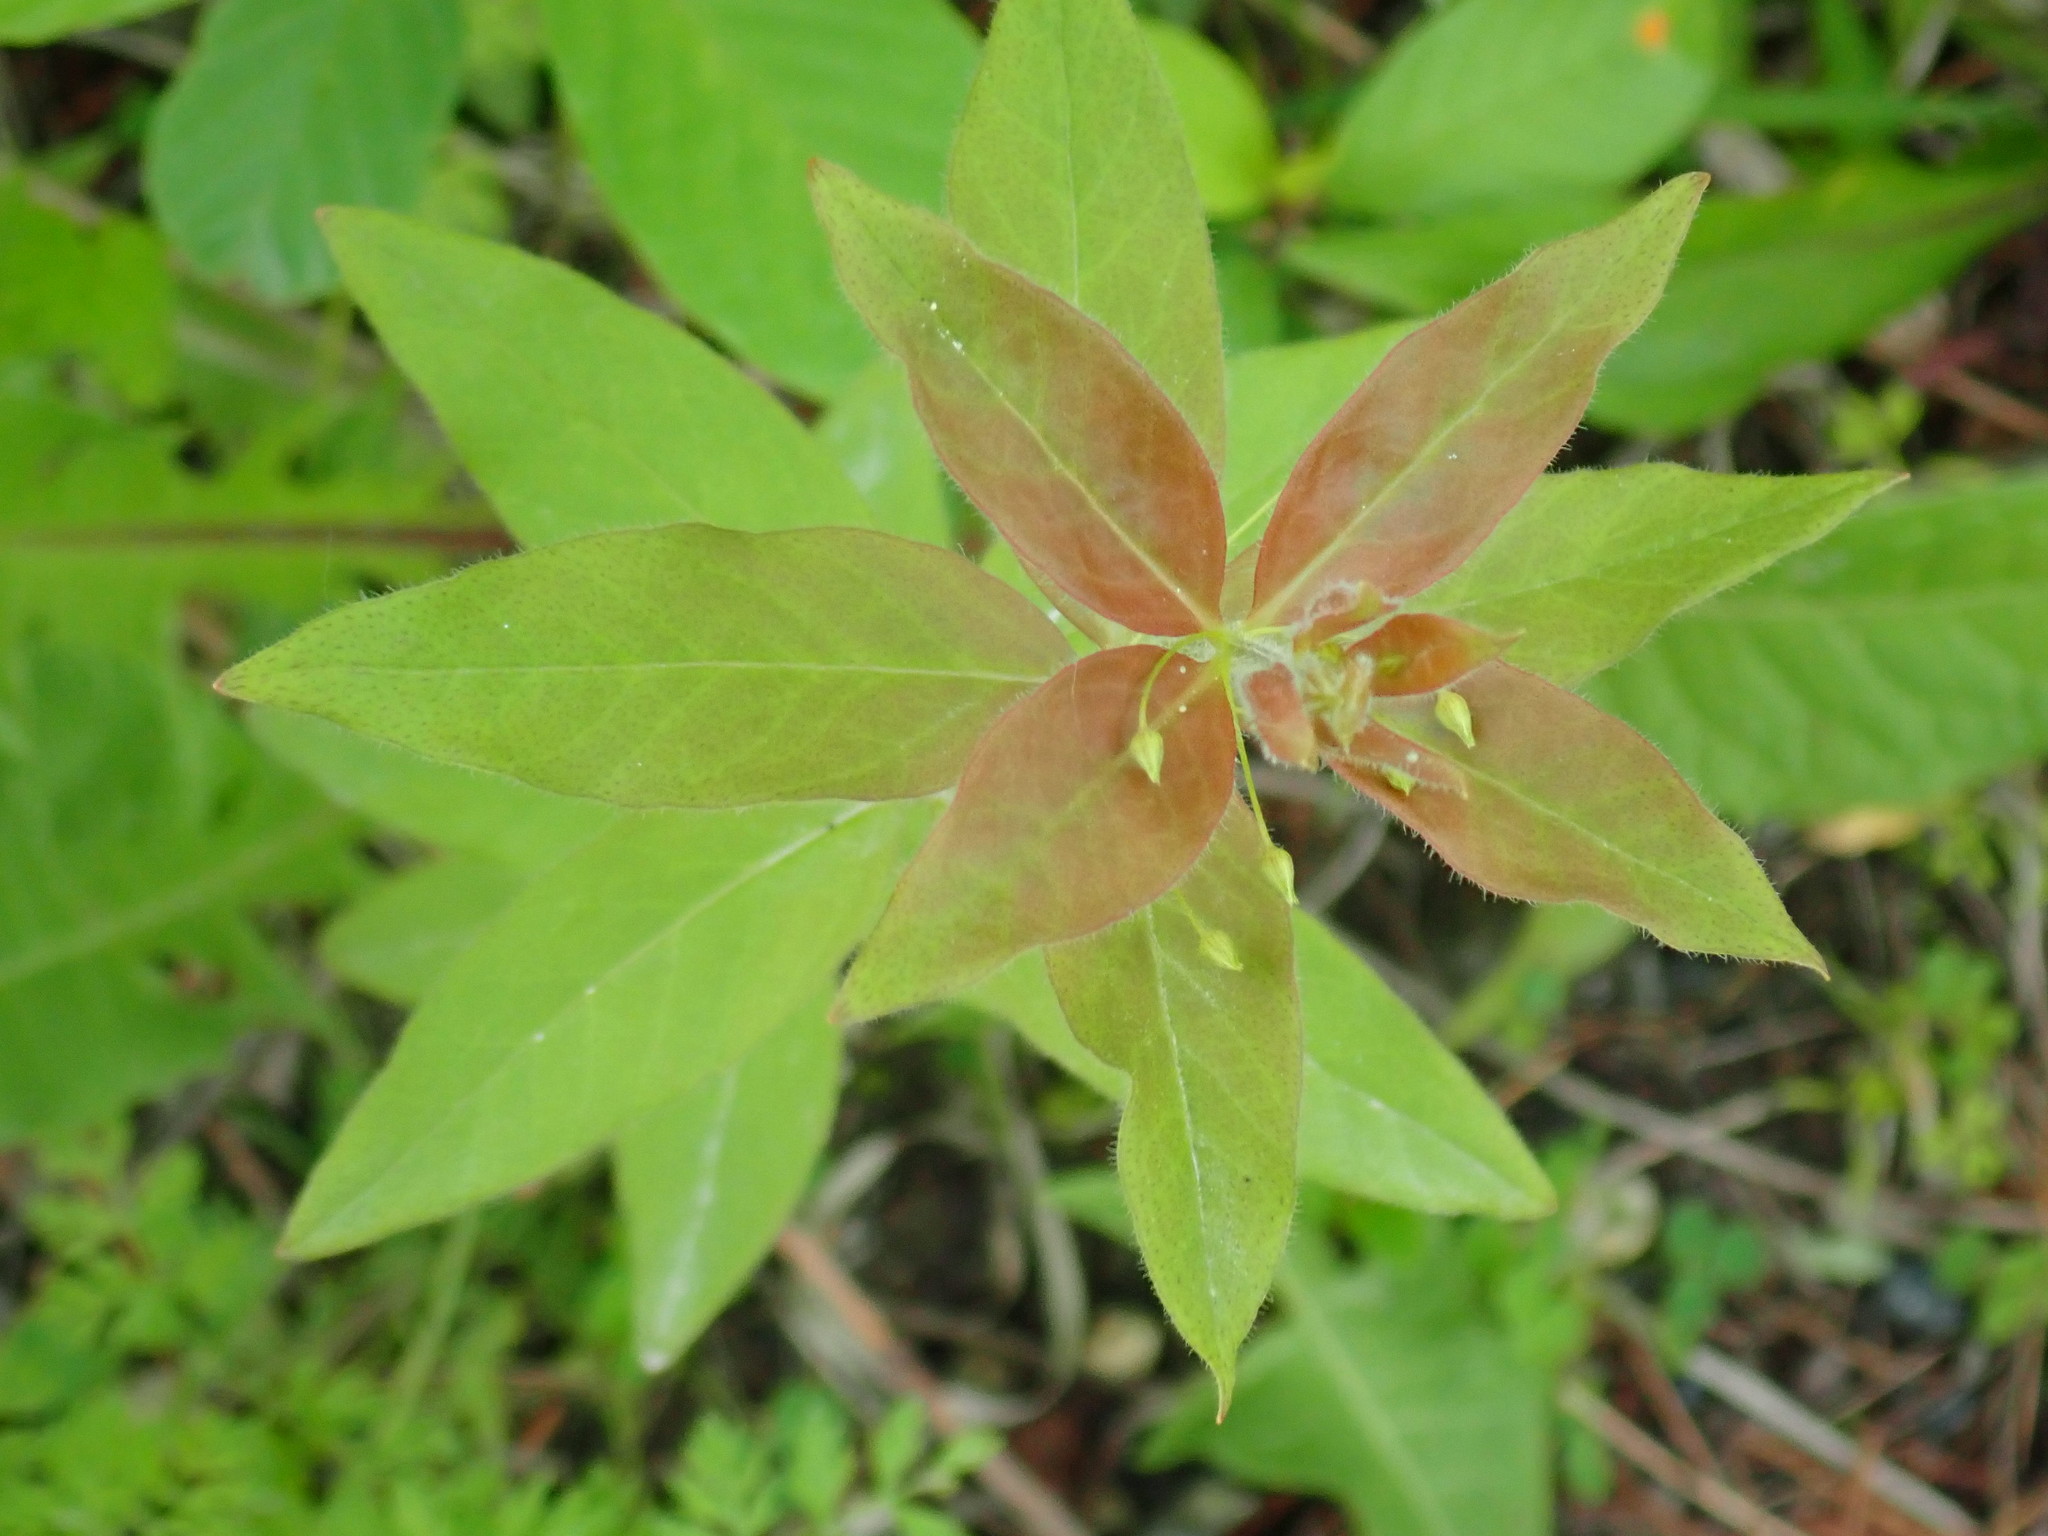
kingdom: Plantae
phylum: Tracheophyta
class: Magnoliopsida
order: Ericales
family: Primulaceae
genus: Lysimachia
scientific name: Lysimachia quadrifolia
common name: Whorled loosestrife
